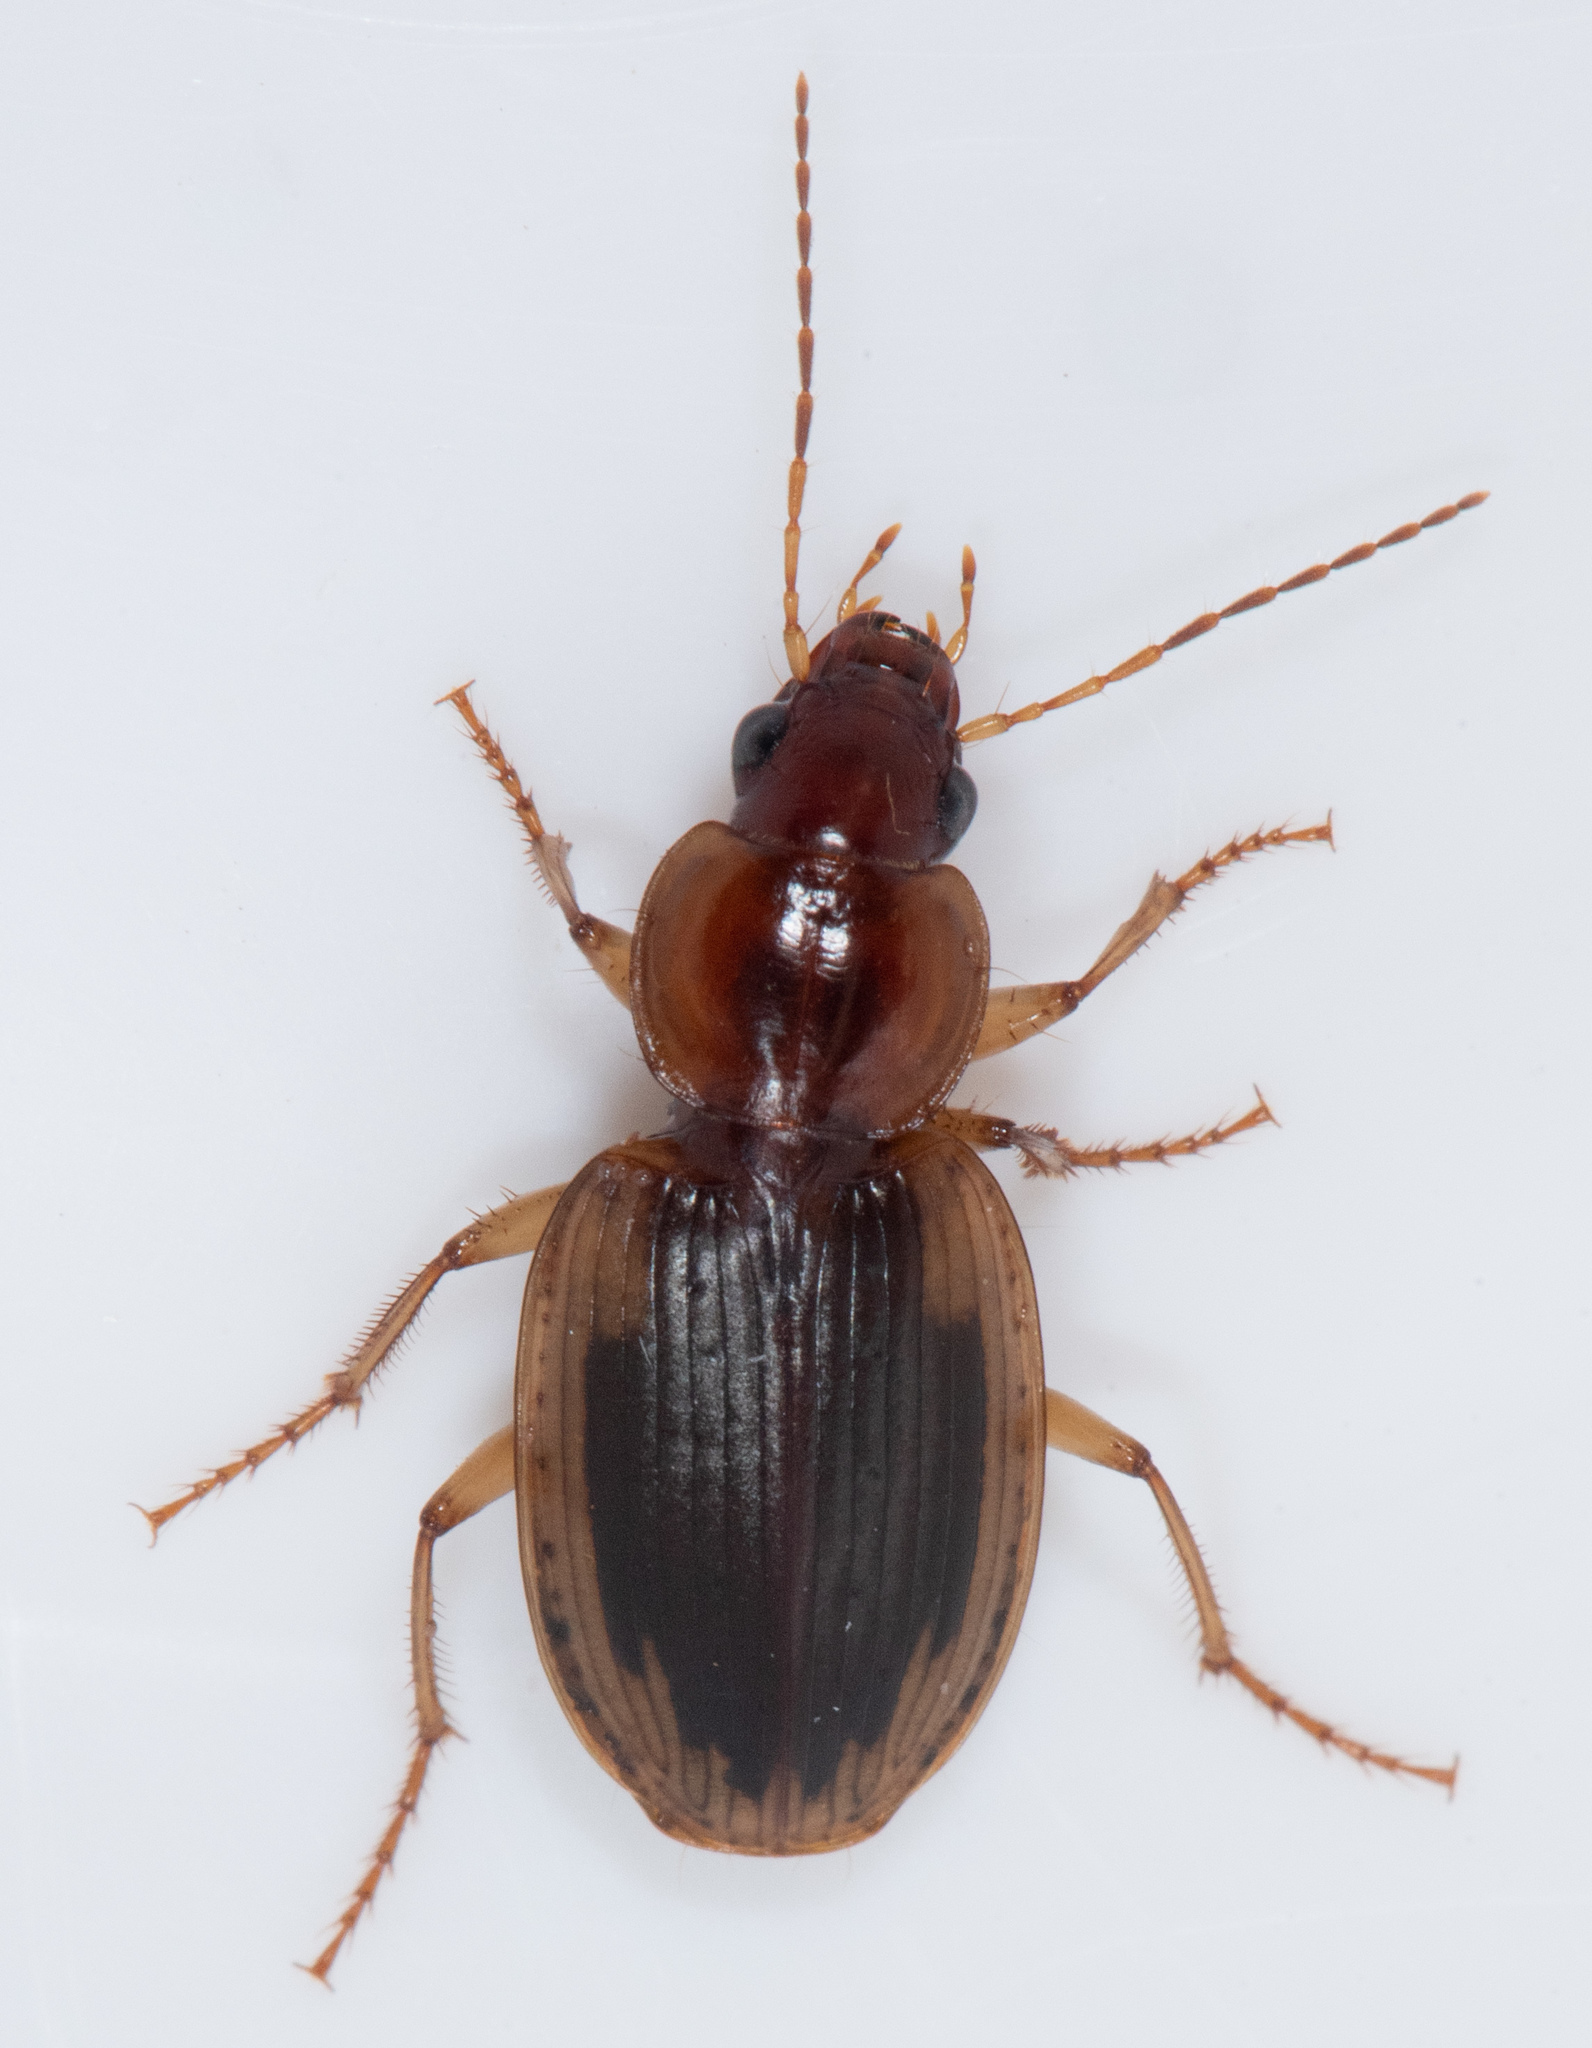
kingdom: Animalia
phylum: Arthropoda
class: Insecta
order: Coleoptera
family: Carabidae
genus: Tanystoma
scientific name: Tanystoma maculicolle
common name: Tule beetle
